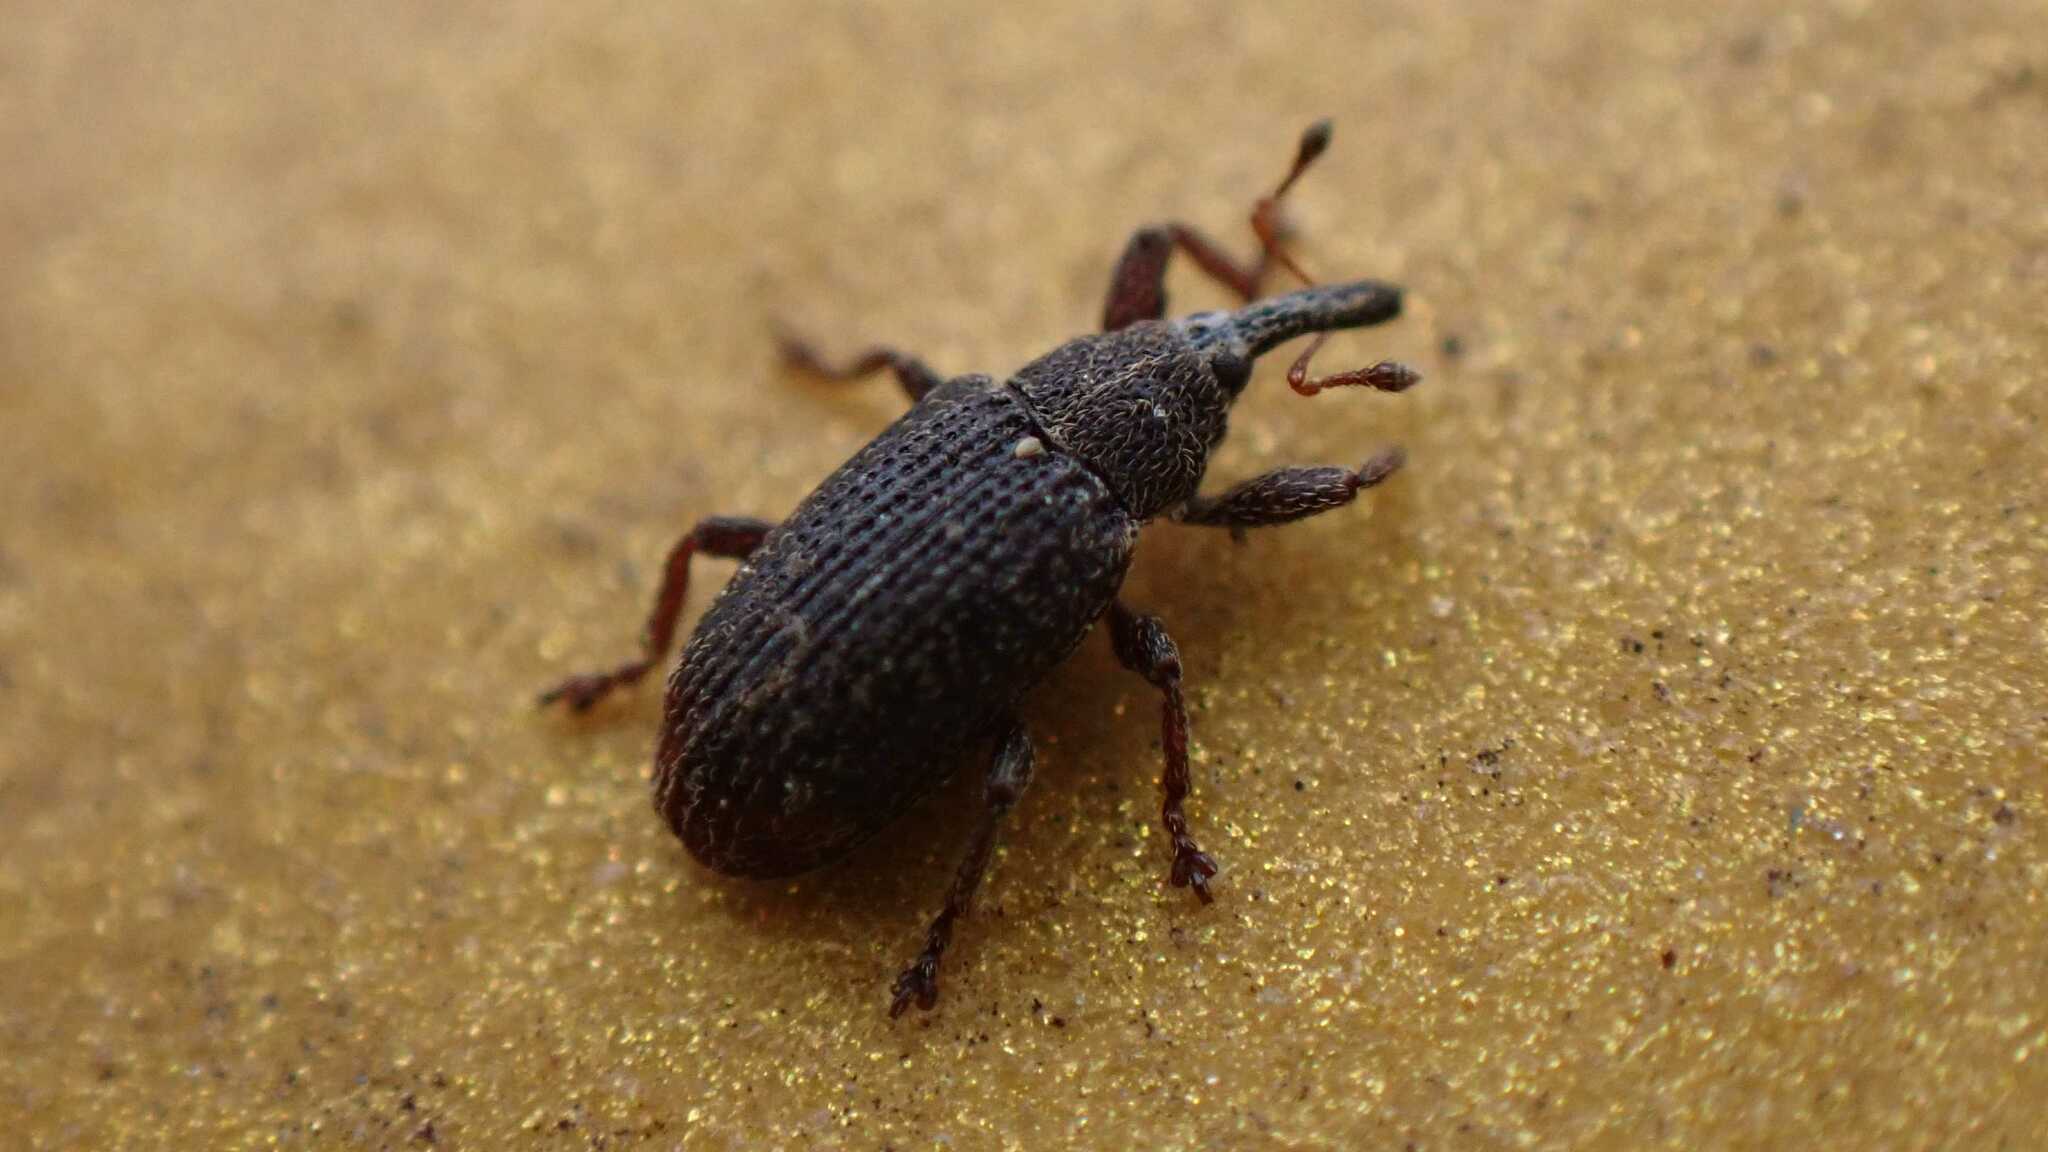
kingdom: Animalia
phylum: Arthropoda
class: Insecta
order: Coleoptera
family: Curculionidae
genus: Bradybatus
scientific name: Bradybatus kellneri
